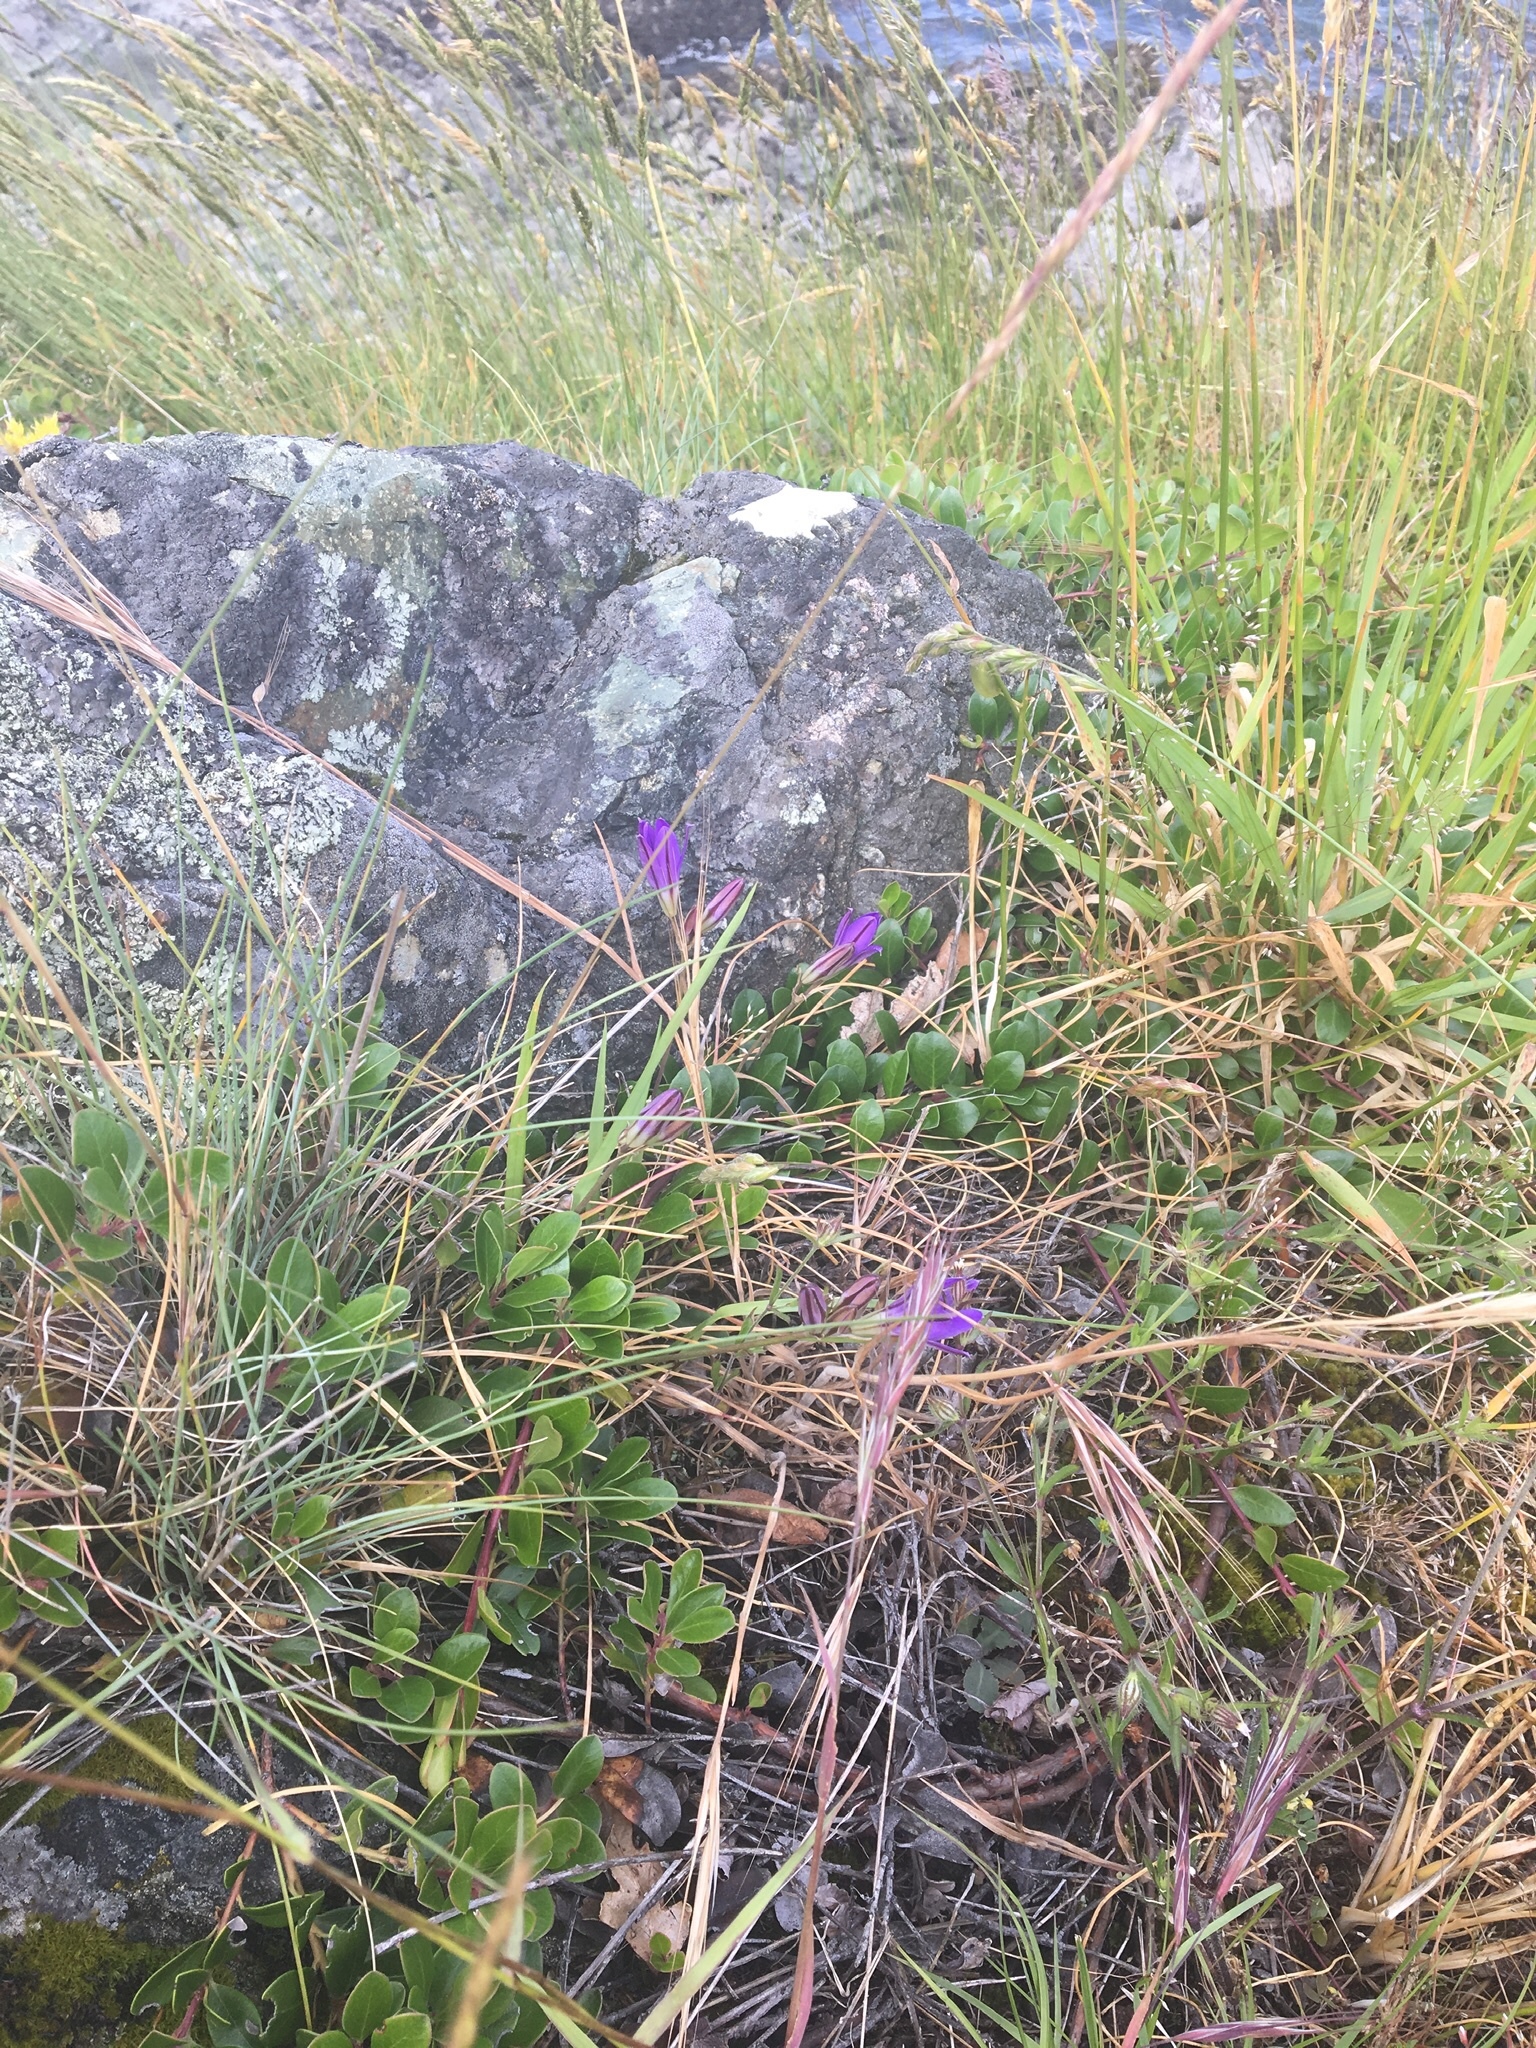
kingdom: Plantae
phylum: Tracheophyta
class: Liliopsida
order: Asparagales
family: Asparagaceae
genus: Brodiaea
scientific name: Brodiaea coronaria
